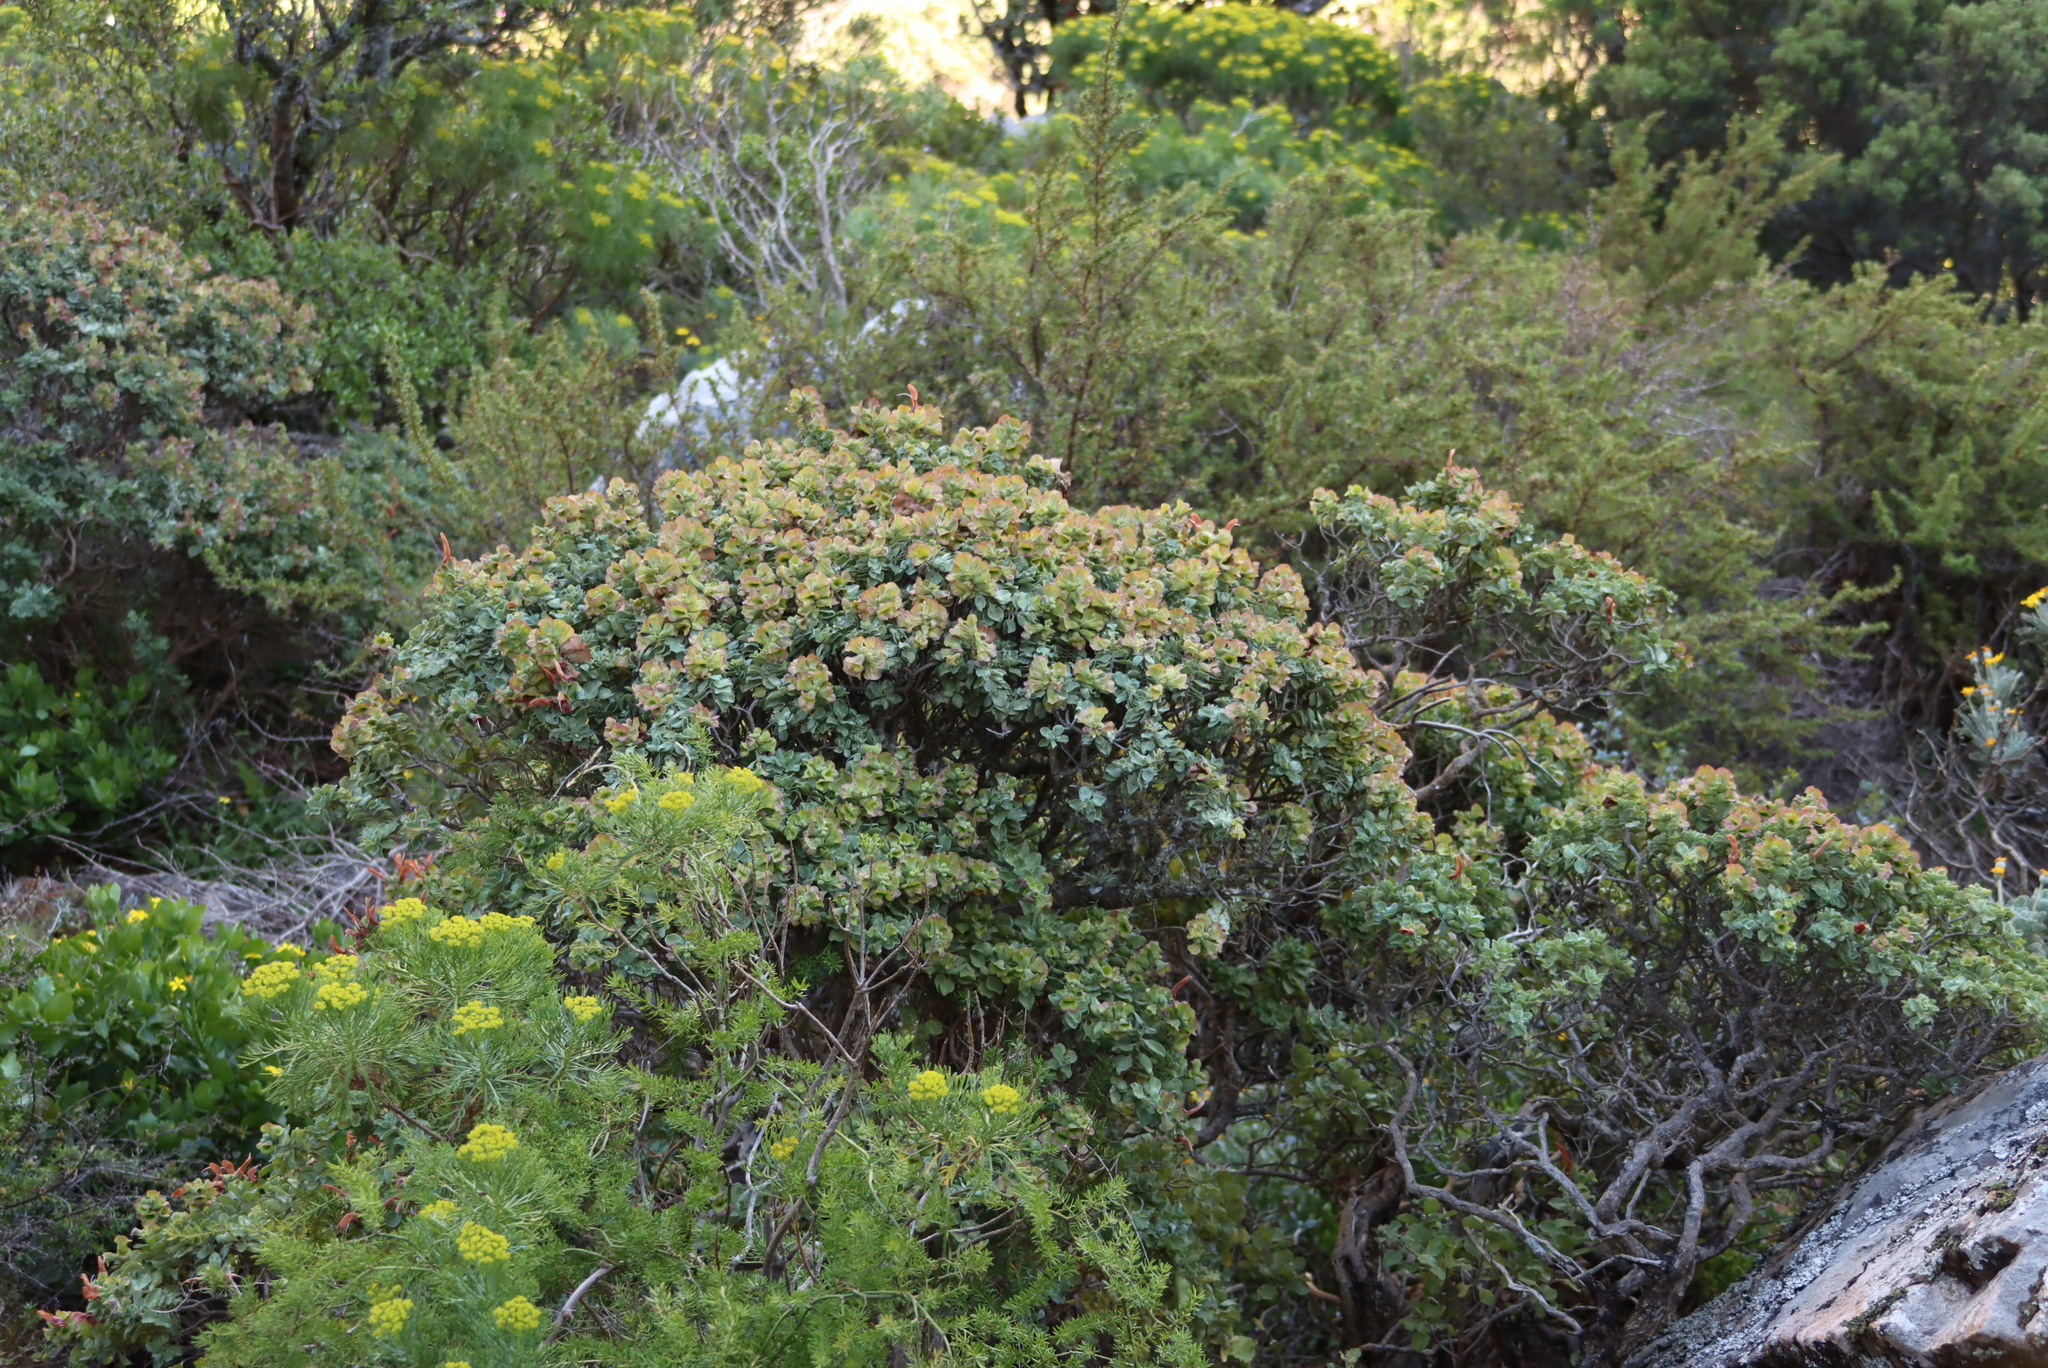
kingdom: Plantae
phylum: Tracheophyta
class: Magnoliopsida
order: Lamiales
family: Lamiaceae
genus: Salvia
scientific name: Salvia aurea
